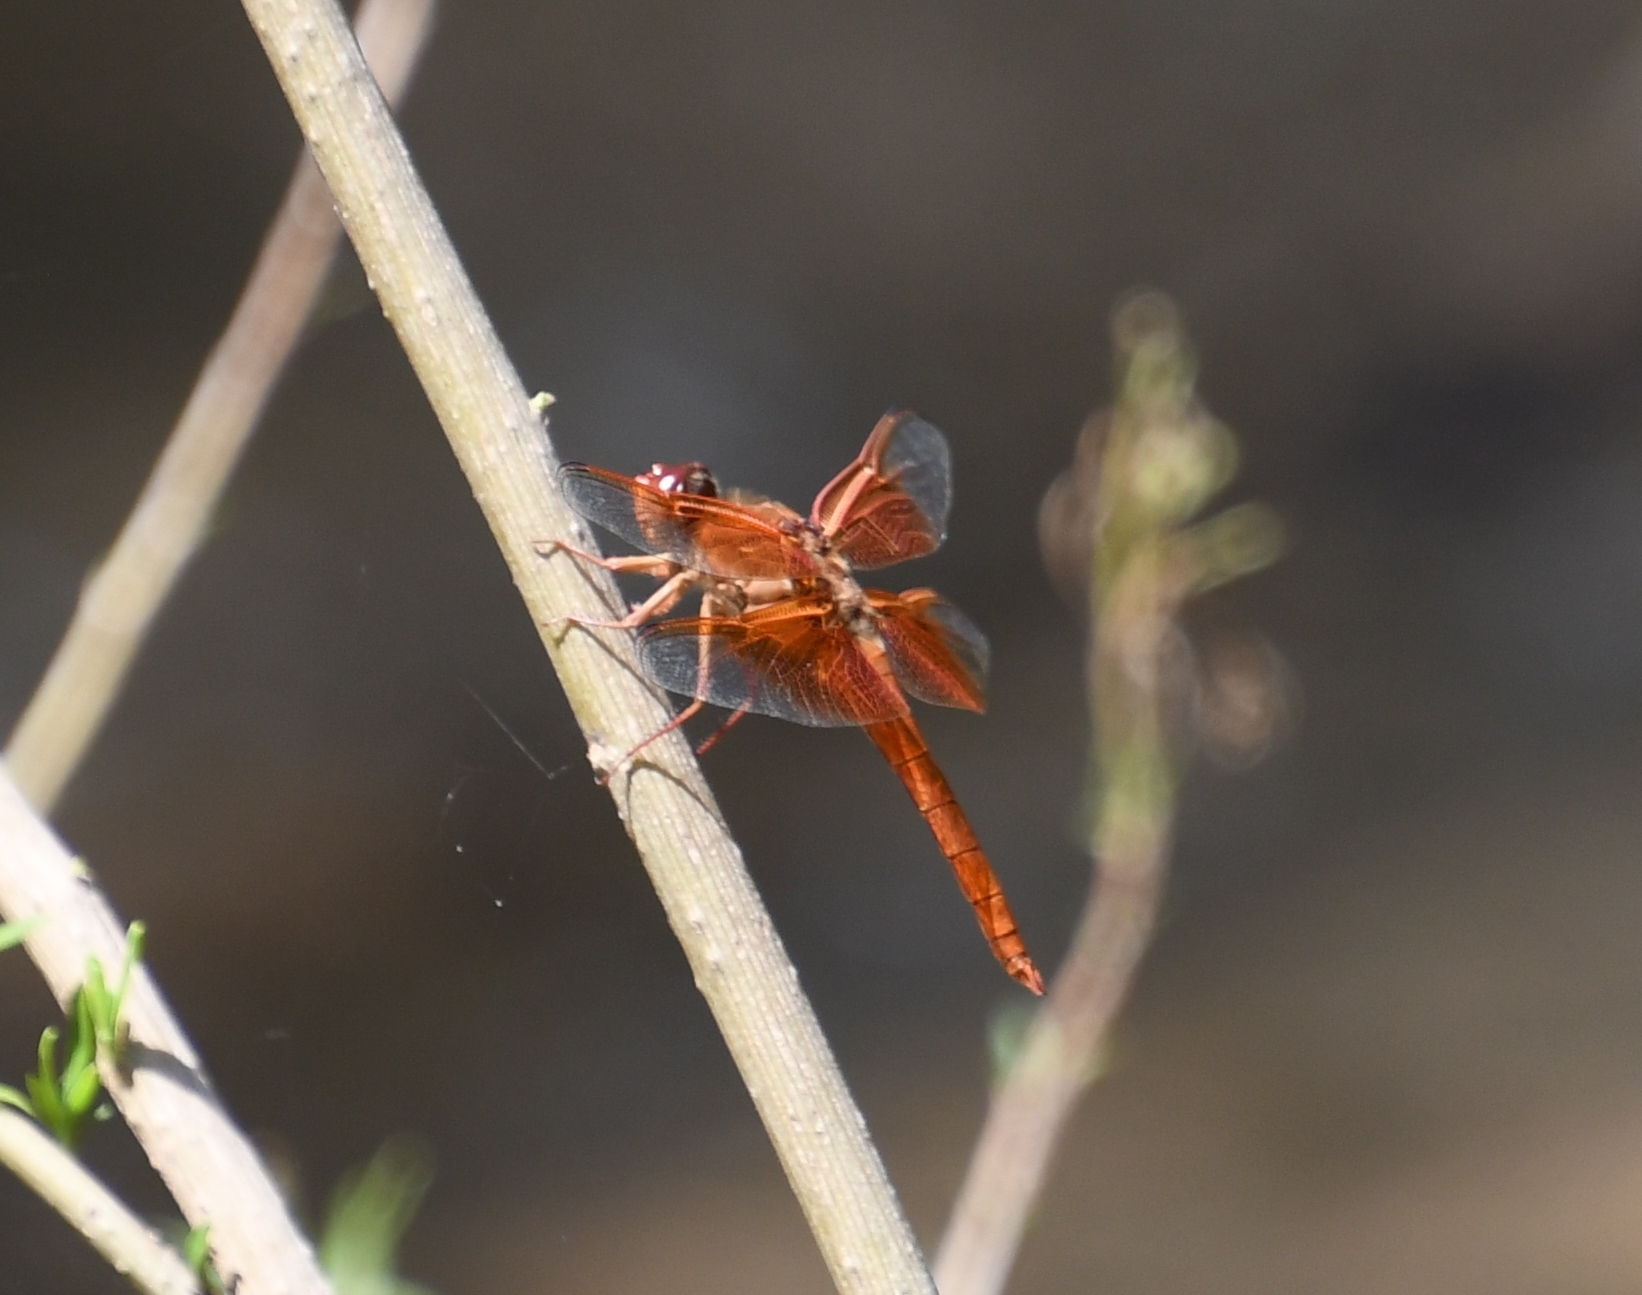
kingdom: Animalia
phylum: Arthropoda
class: Insecta
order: Odonata
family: Libellulidae
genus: Libellula
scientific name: Libellula saturata
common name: Flame skimmer
